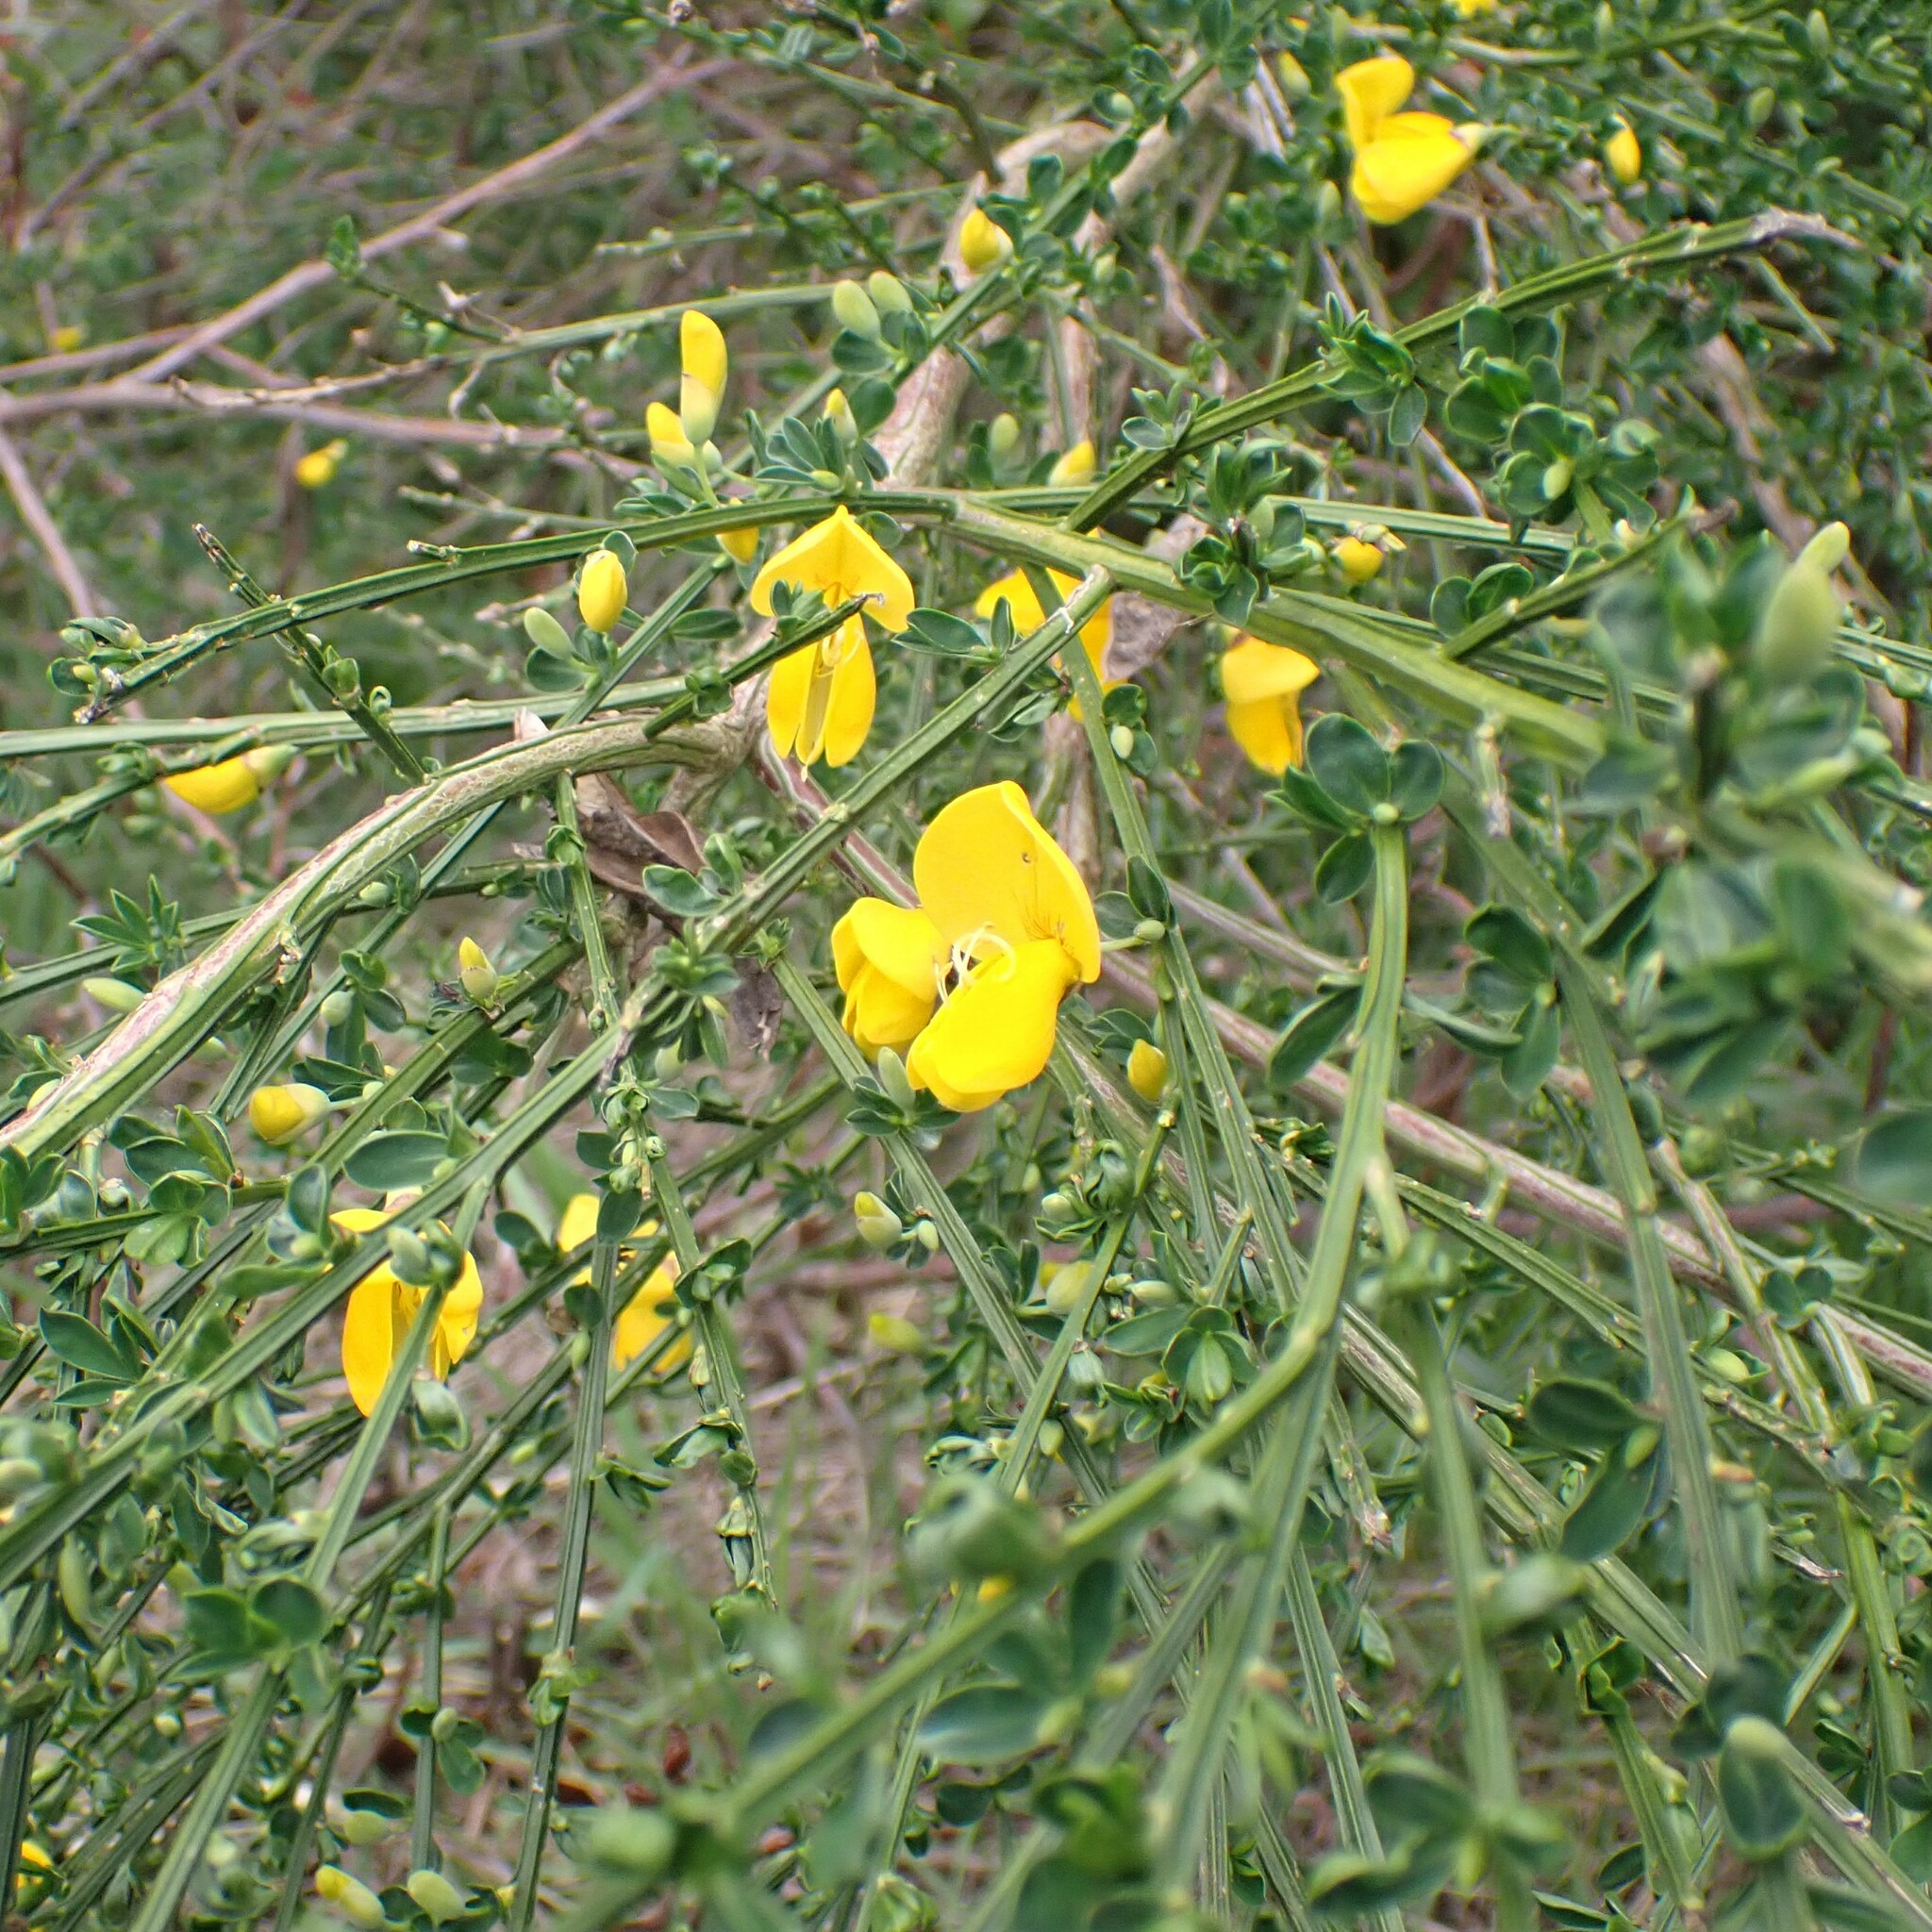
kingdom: Plantae
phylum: Tracheophyta
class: Magnoliopsida
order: Fabales
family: Fabaceae
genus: Cytisus
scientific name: Cytisus scoparius
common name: Scotch broom
